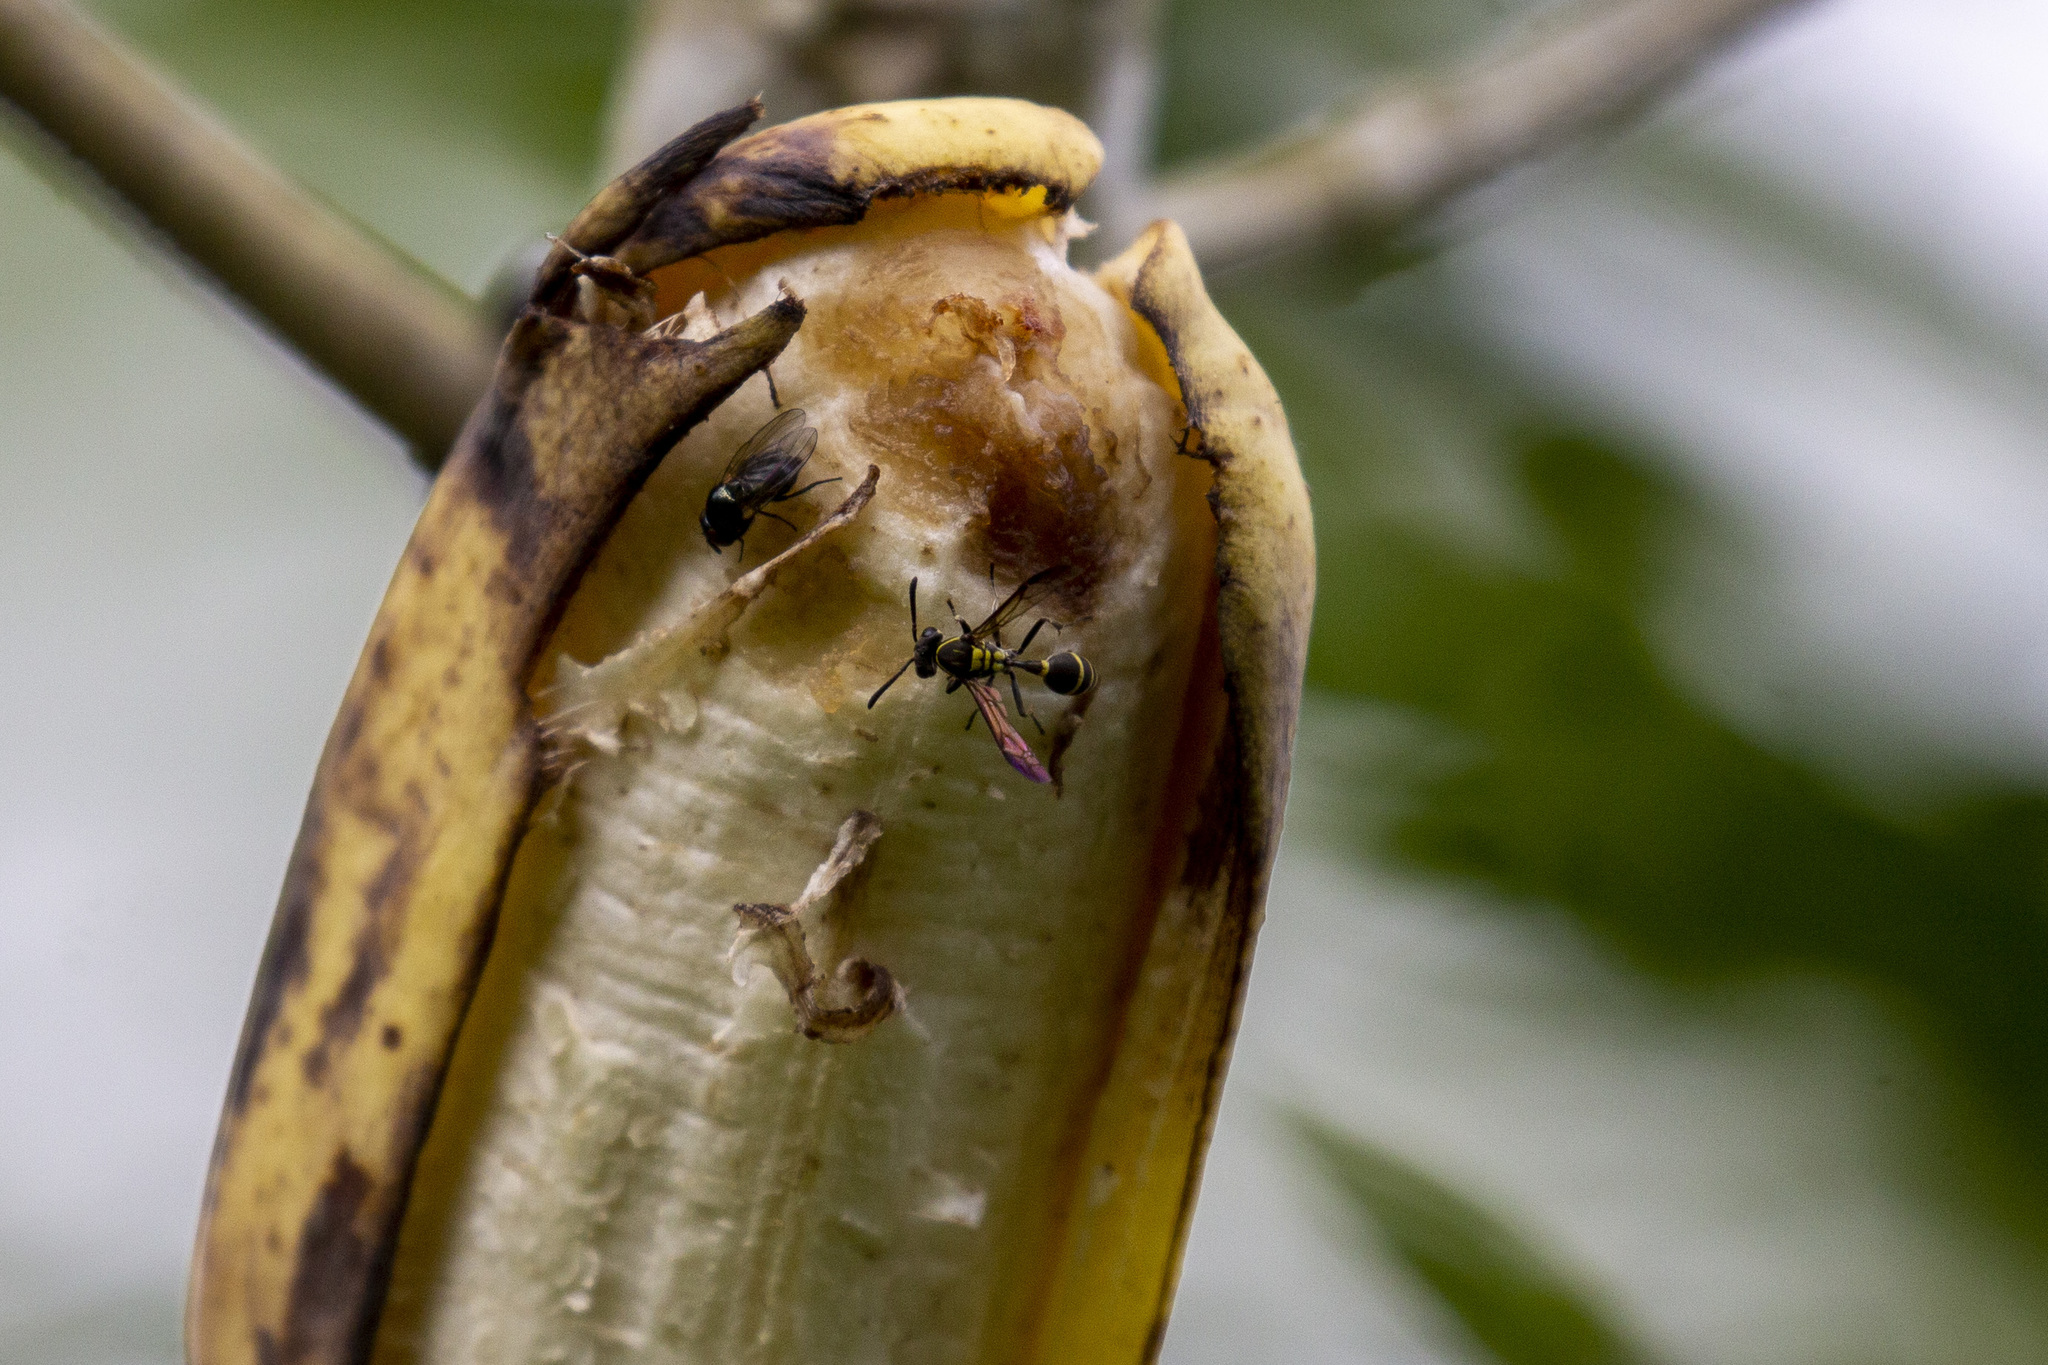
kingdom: Animalia
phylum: Arthropoda
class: Insecta
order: Hymenoptera
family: Eumenidae
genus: Polybia
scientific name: Polybia occidentalis
